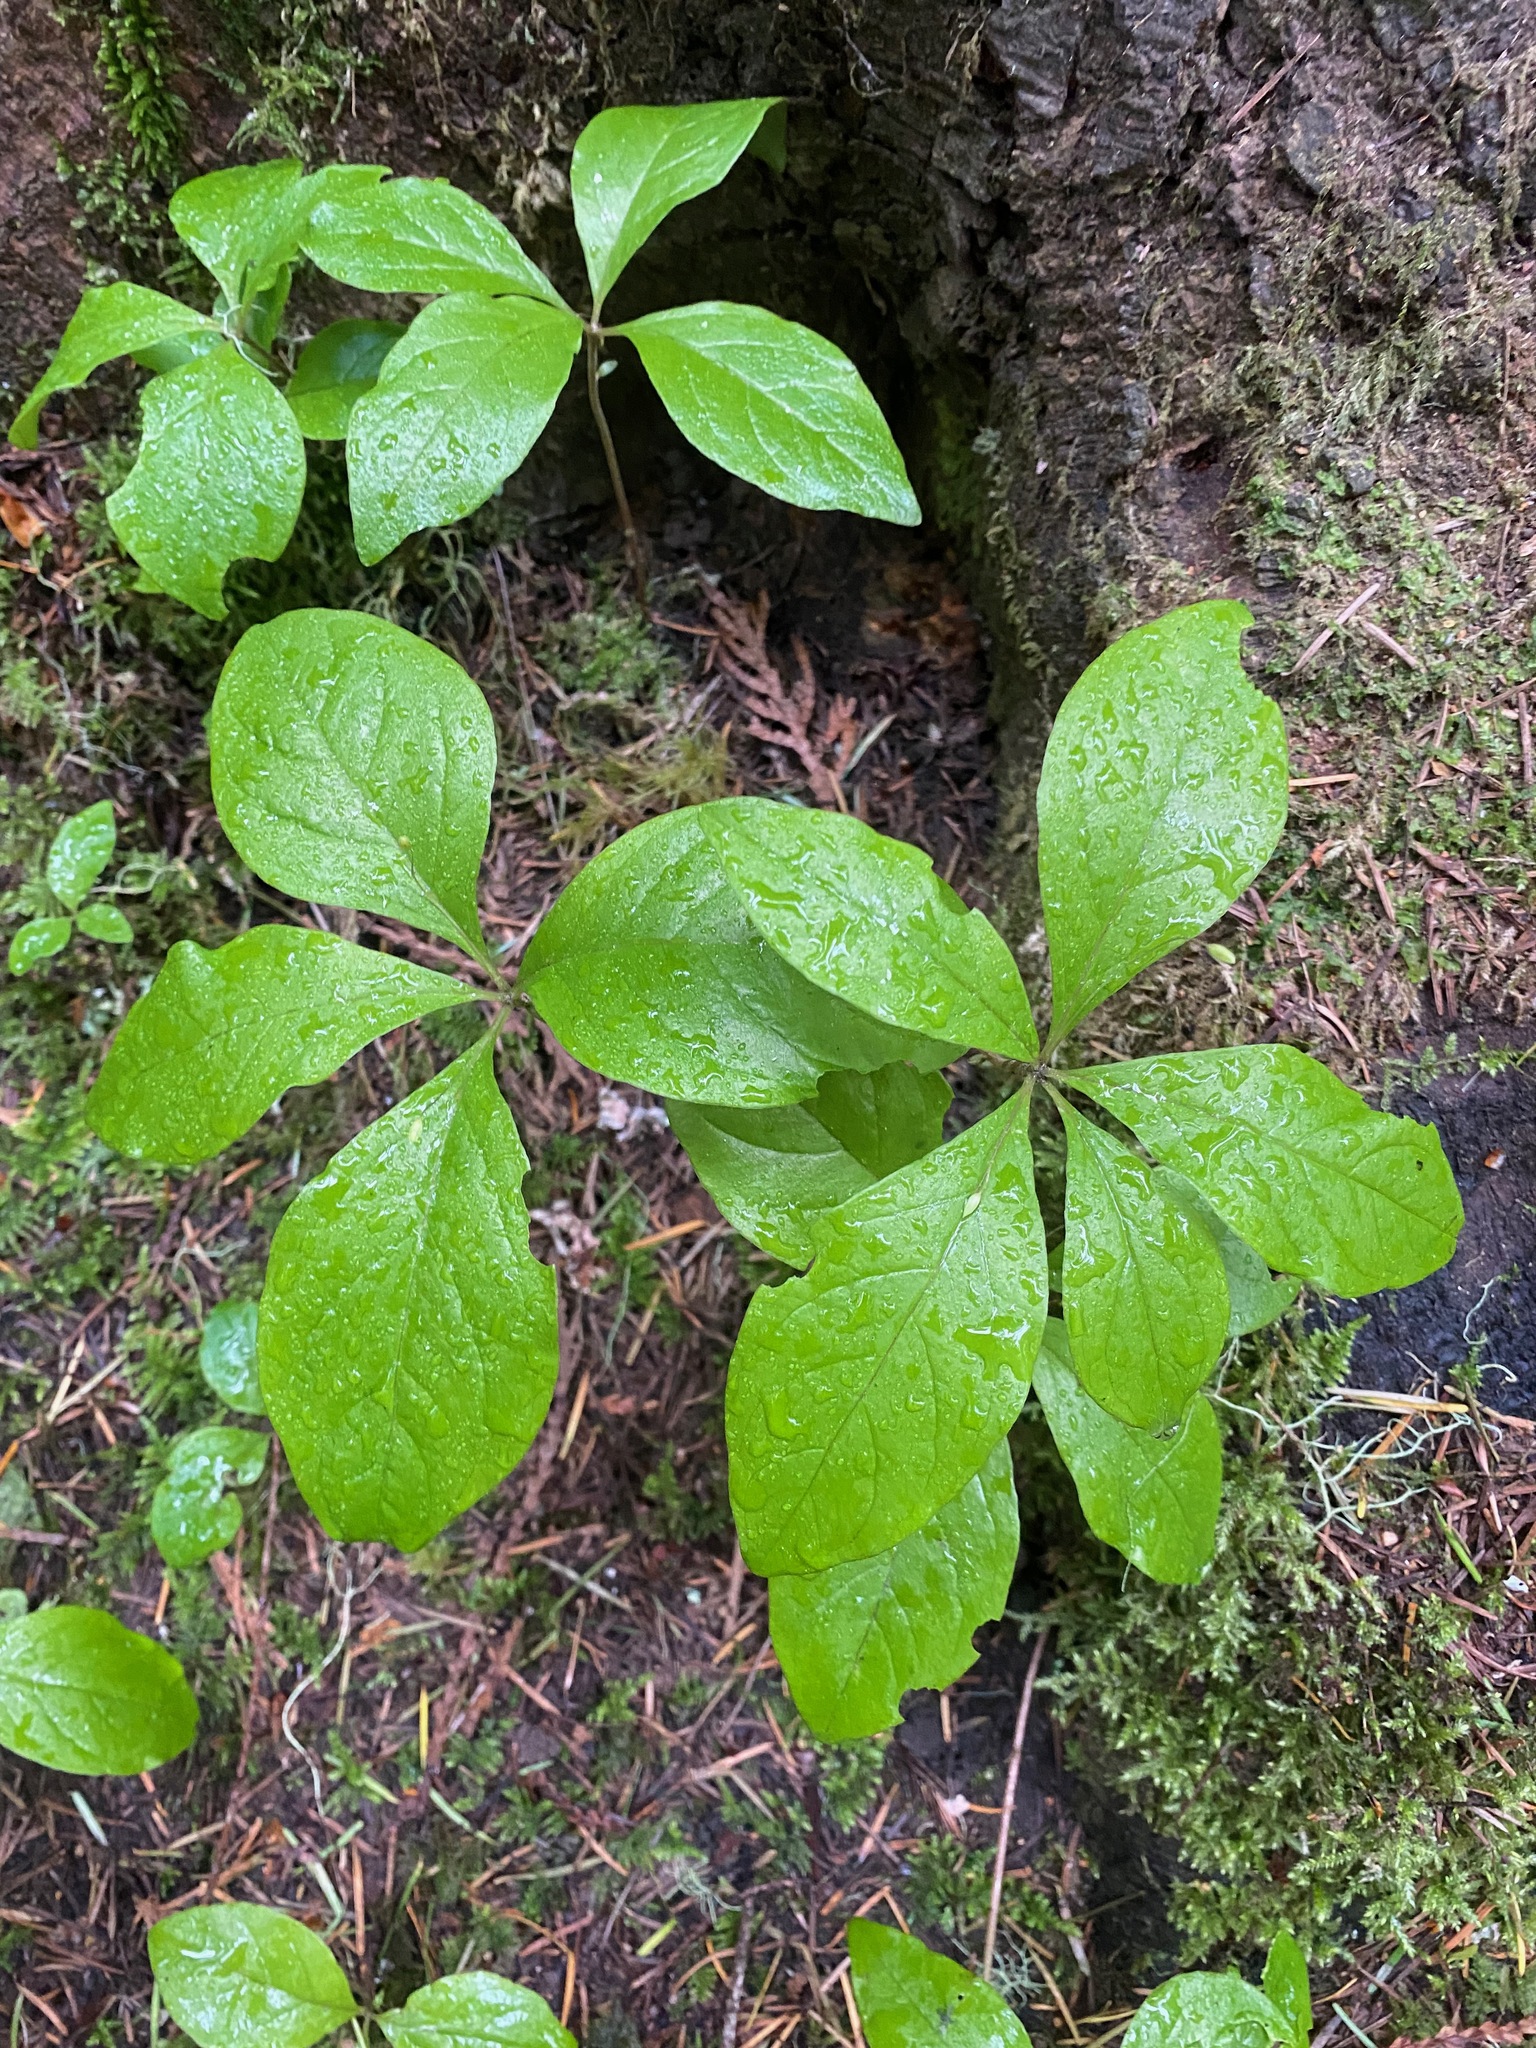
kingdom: Plantae
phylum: Tracheophyta
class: Magnoliopsida
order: Ericales
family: Primulaceae
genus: Lysimachia
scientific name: Lysimachia latifolia
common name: Pacific starflower
